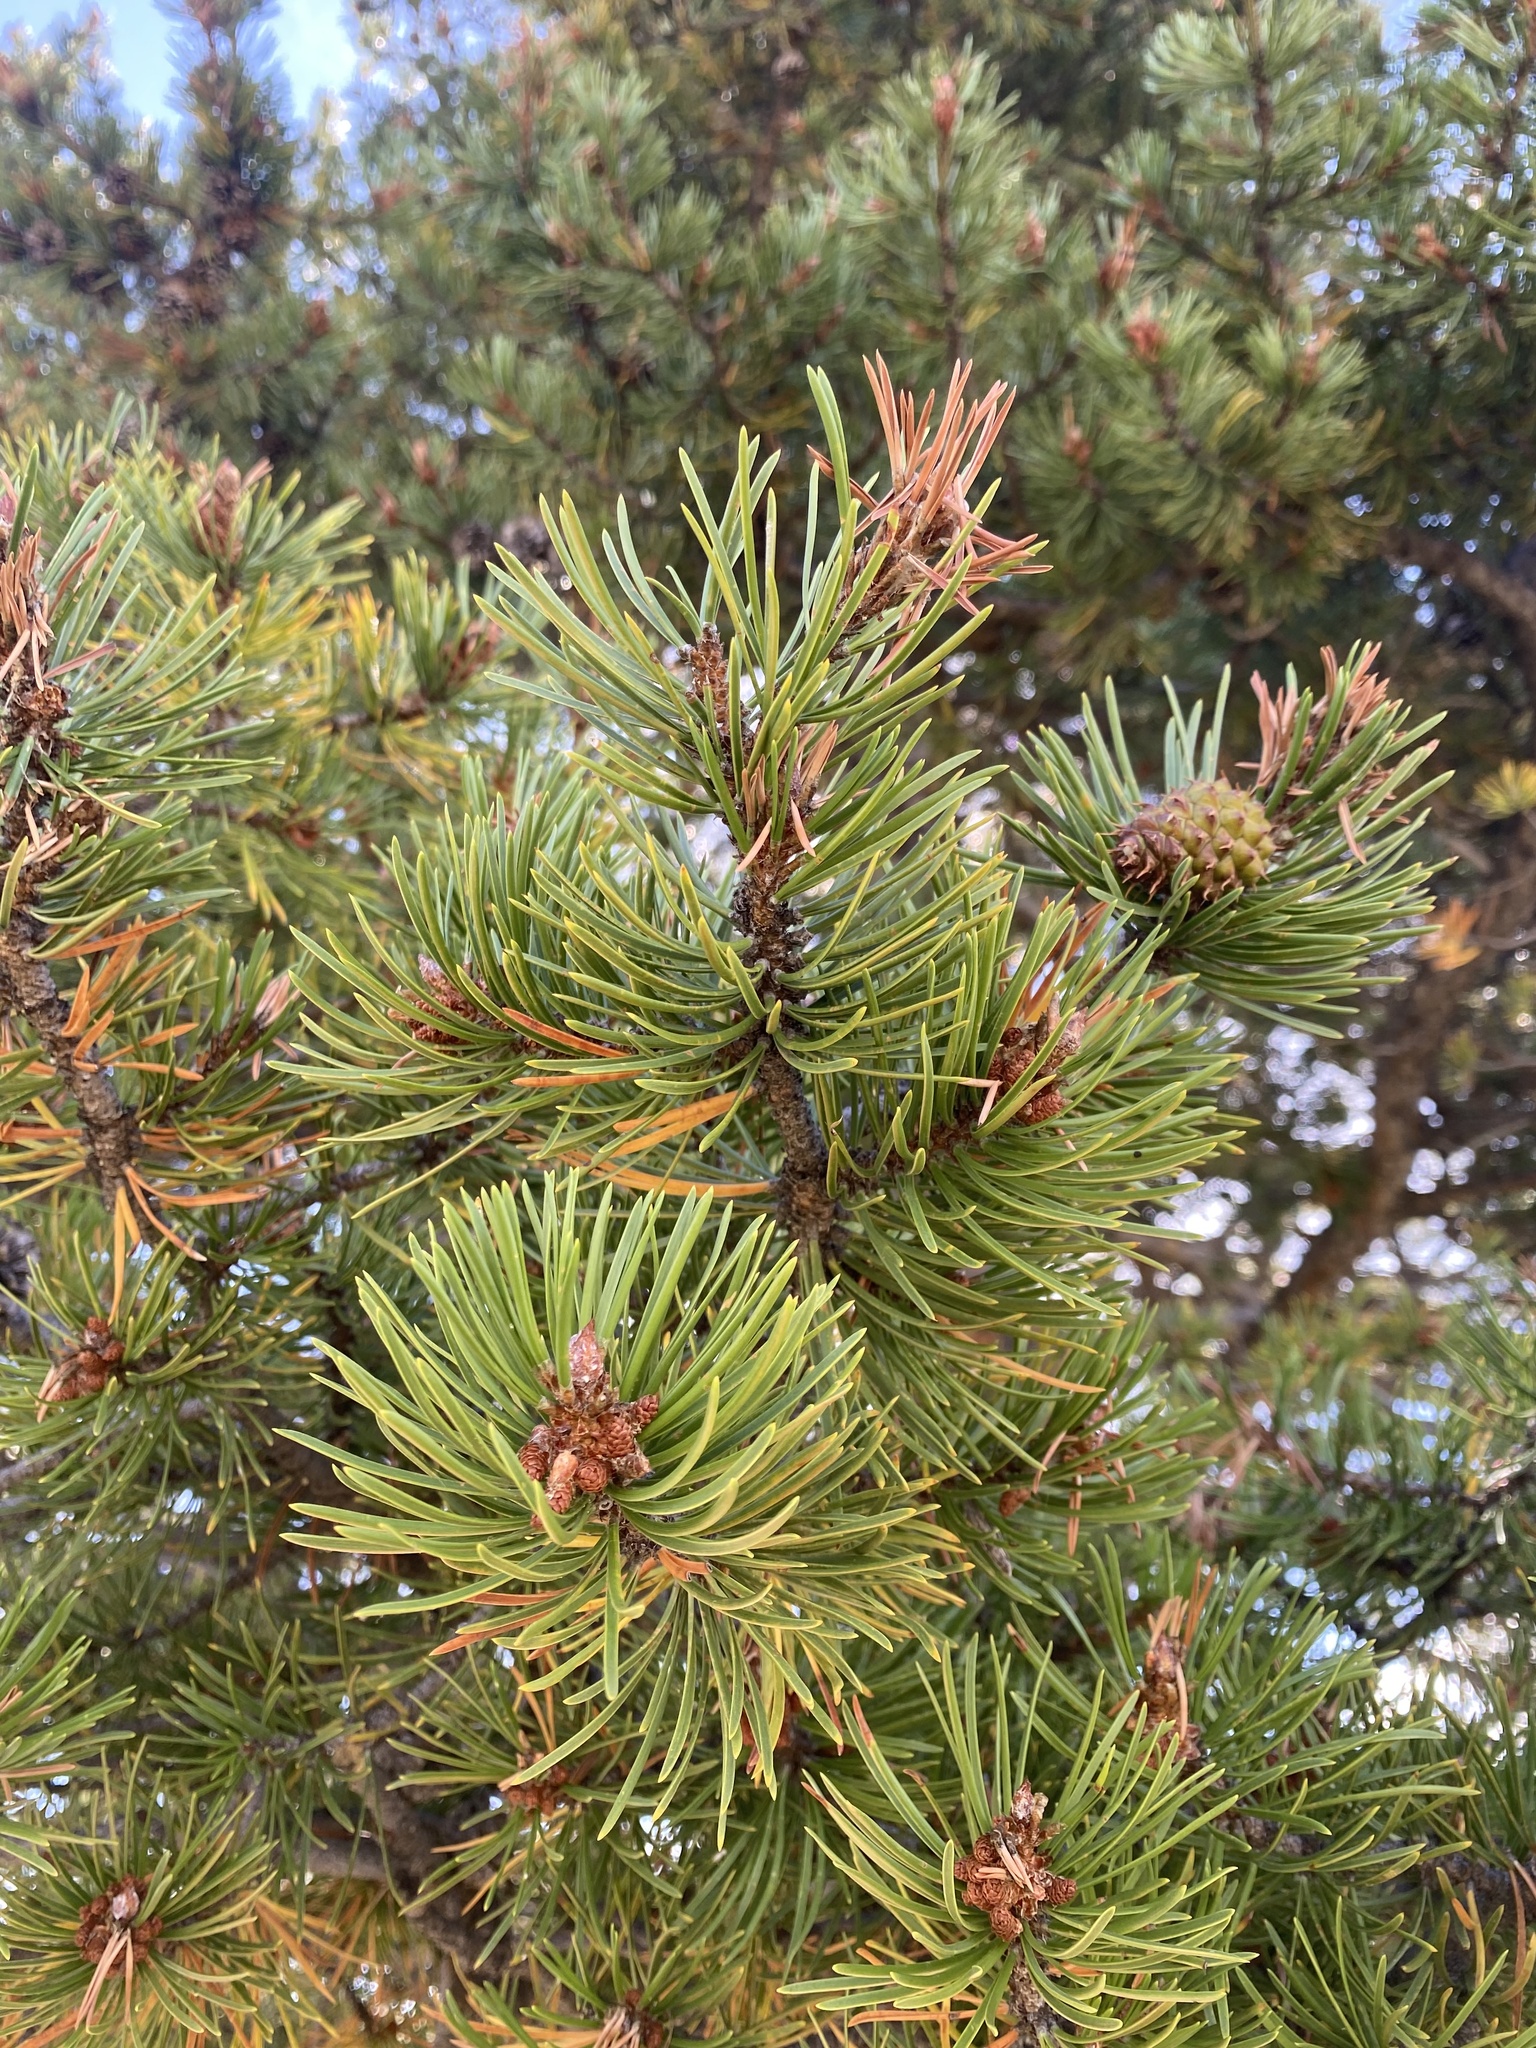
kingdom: Plantae
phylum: Tracheophyta
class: Pinopsida
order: Pinales
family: Pinaceae
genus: Pinus
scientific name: Pinus contorta
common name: Lodgepole pine
